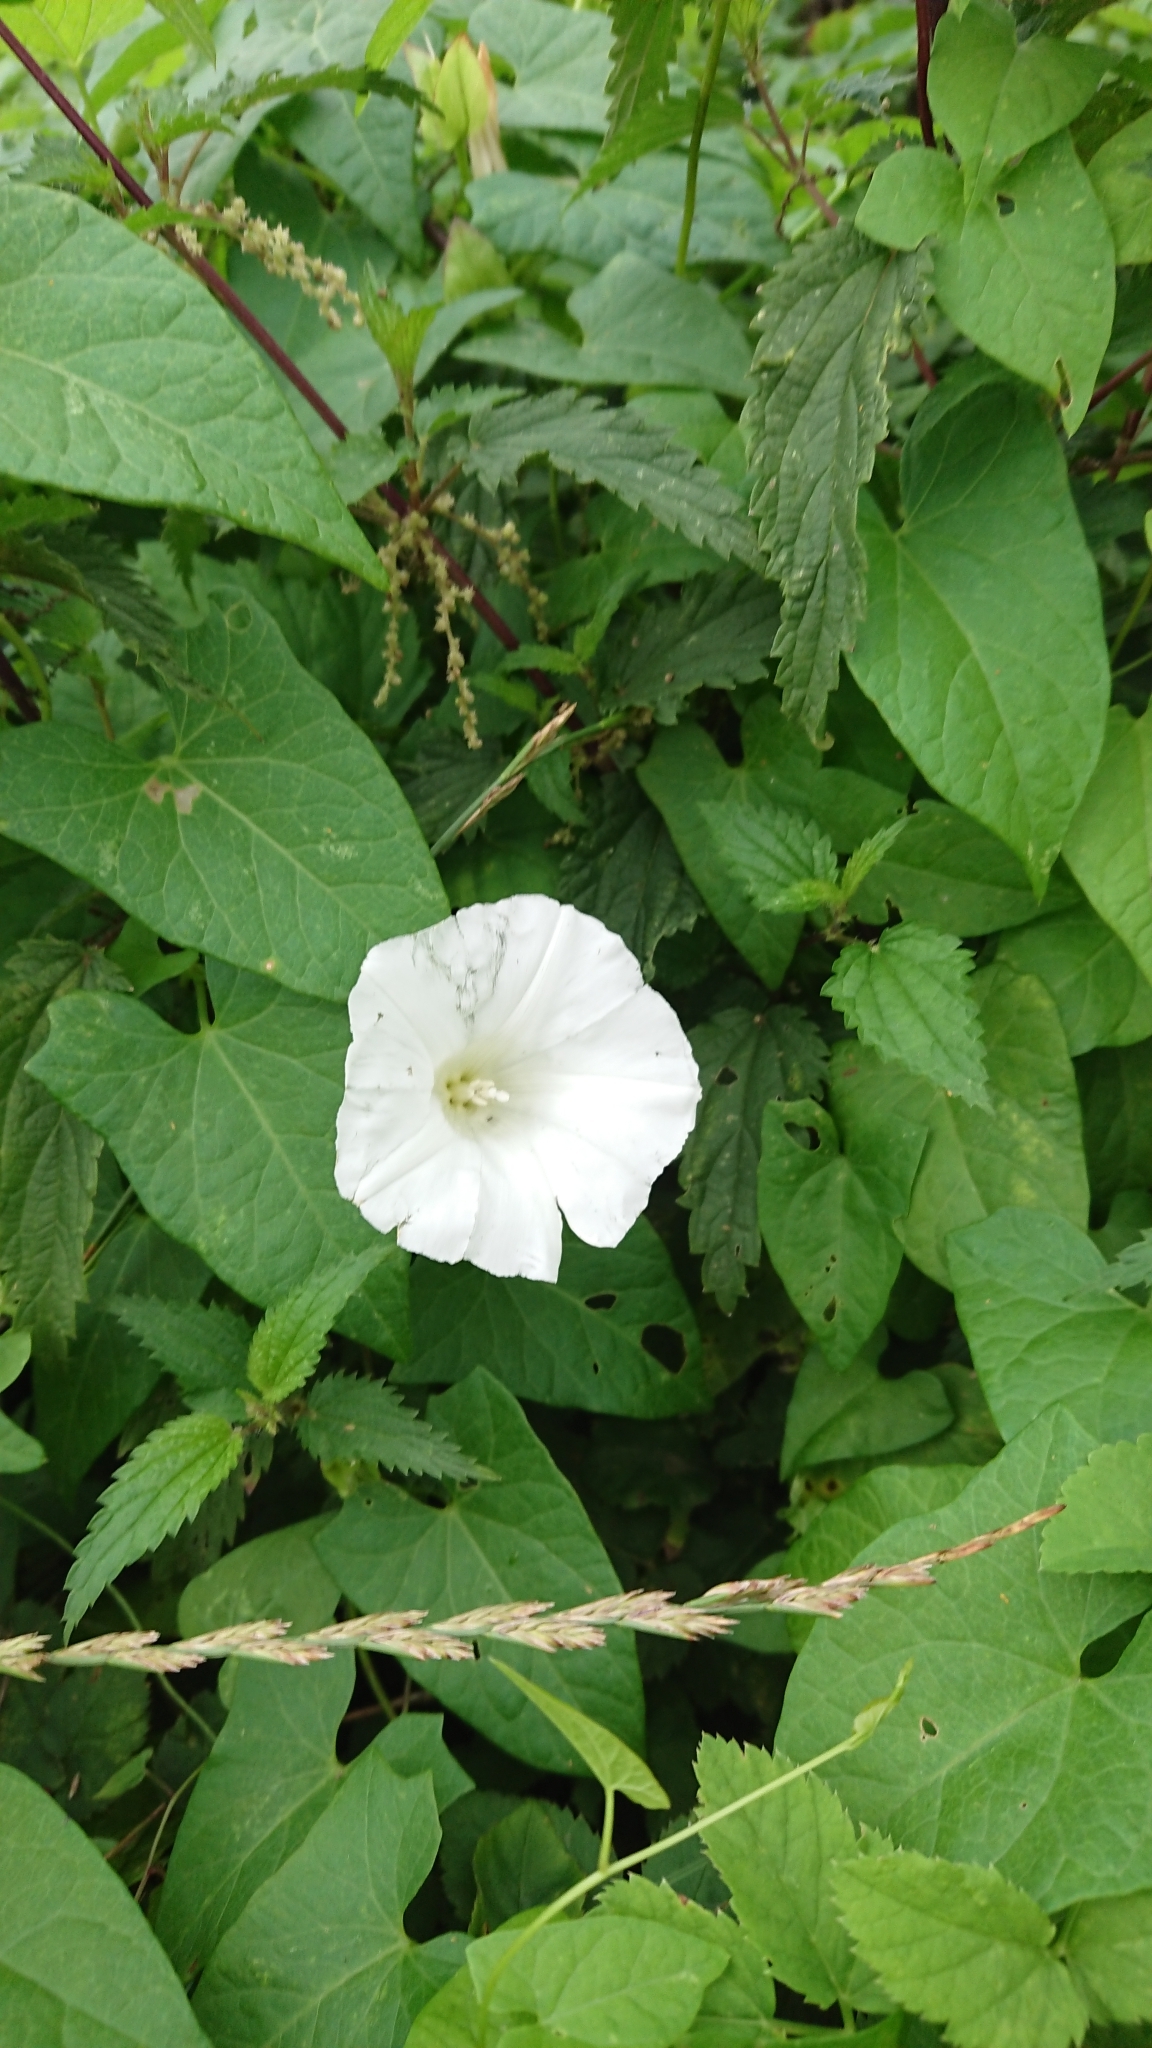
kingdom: Plantae
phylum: Tracheophyta
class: Magnoliopsida
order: Solanales
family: Convolvulaceae
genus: Calystegia
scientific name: Calystegia sepium
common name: Hedge bindweed
